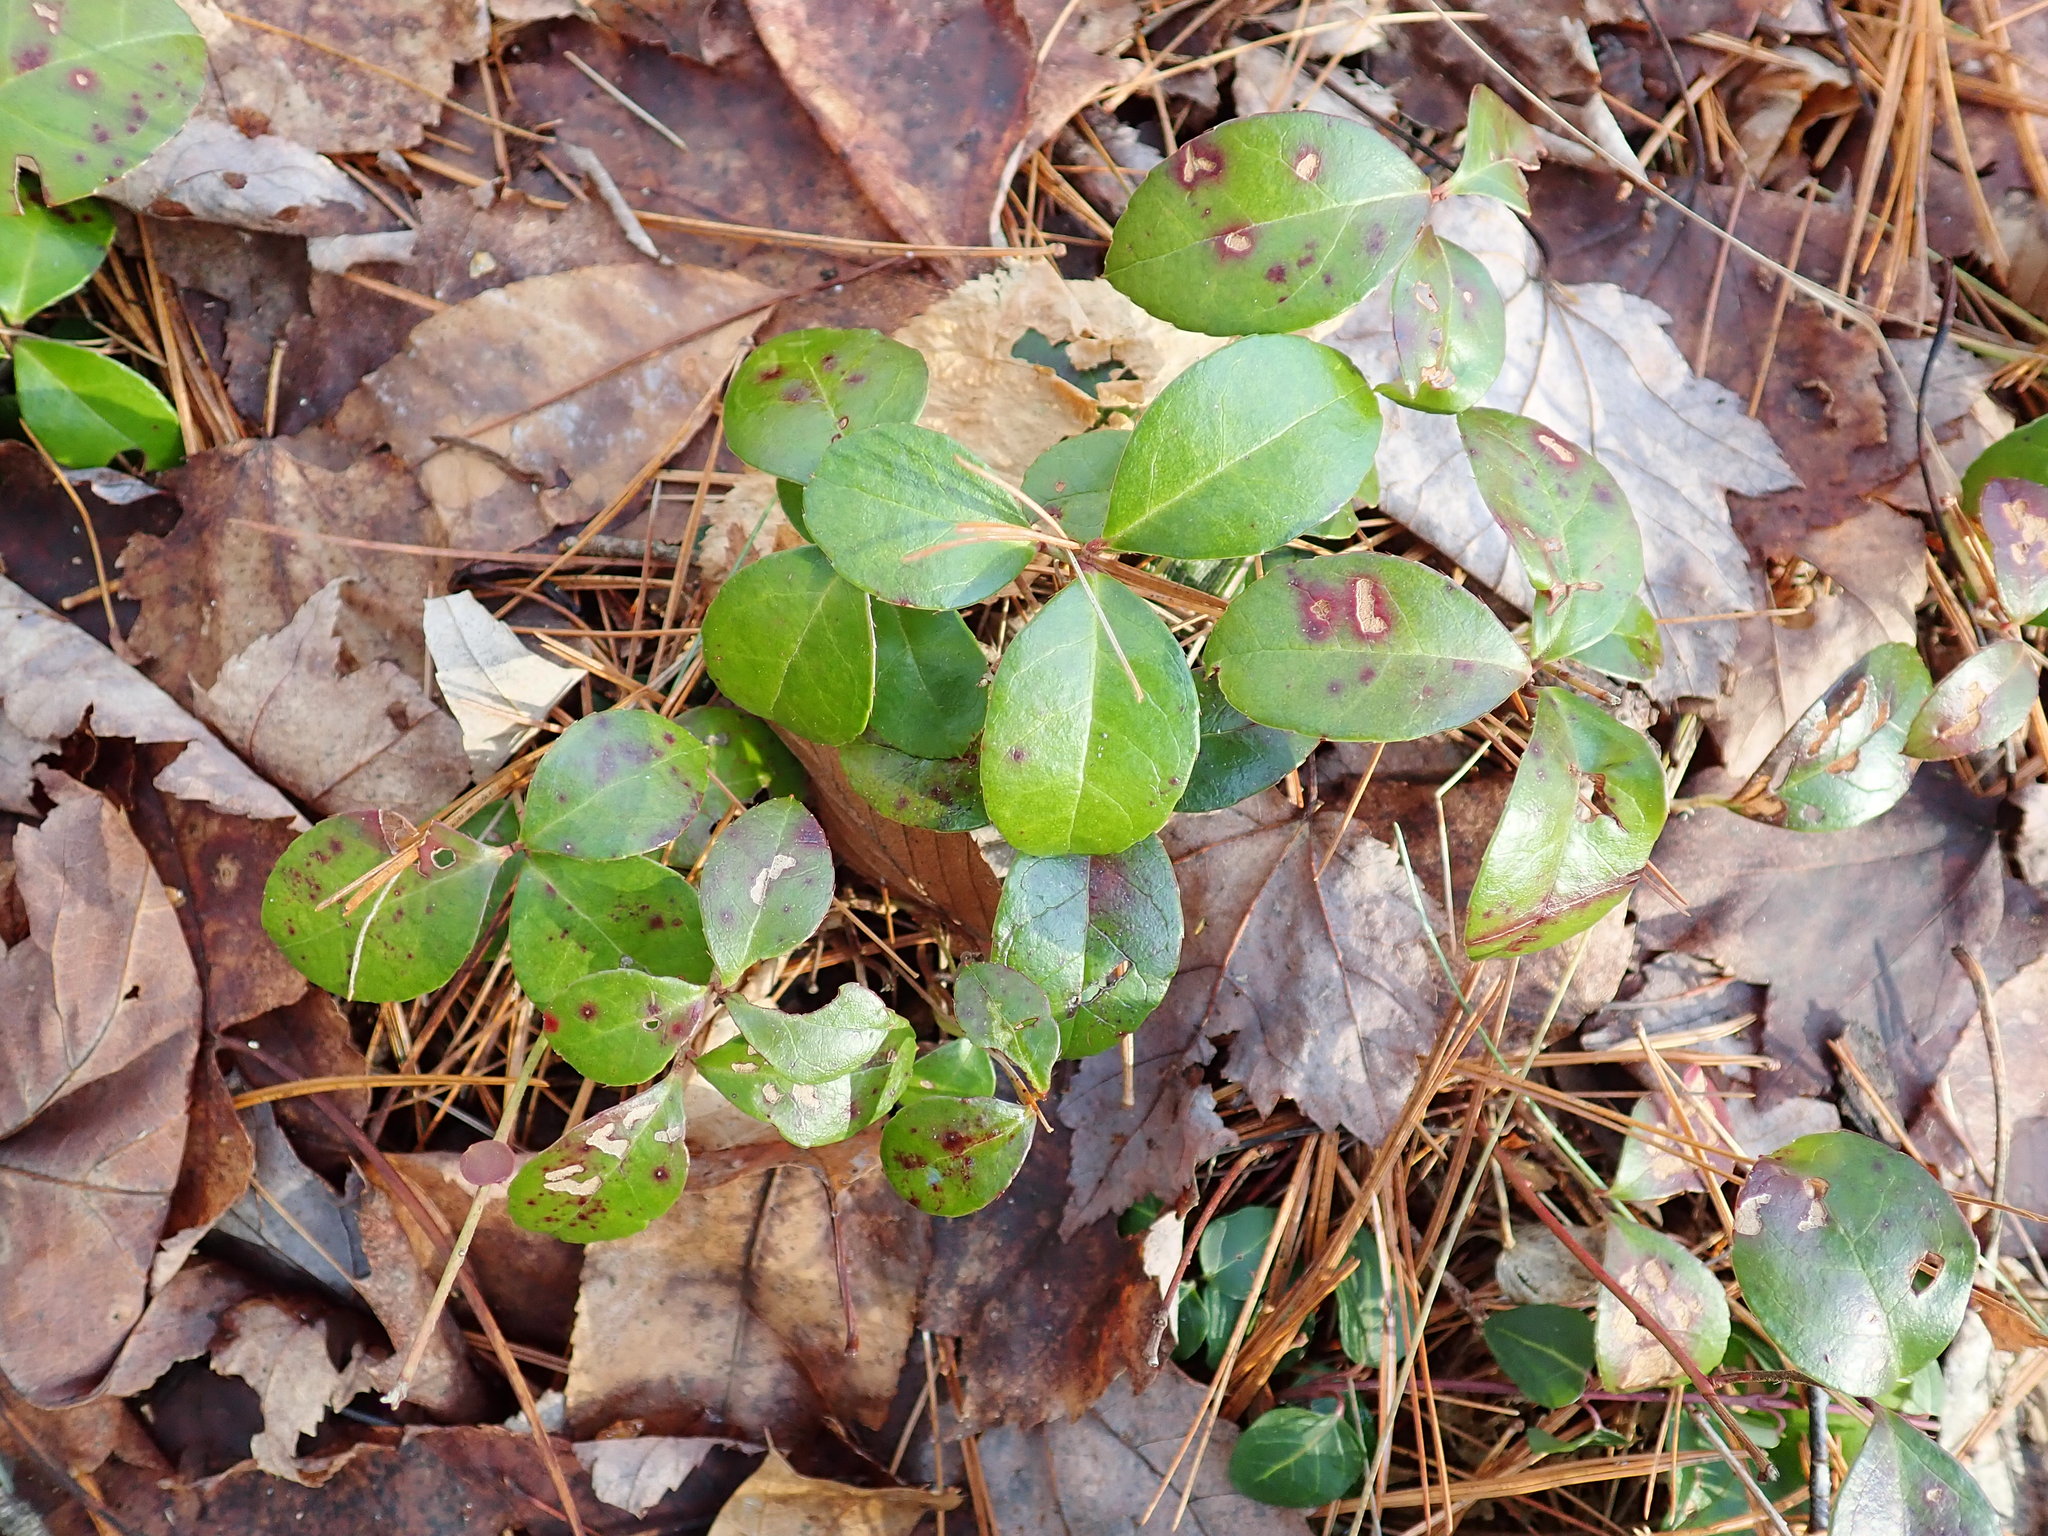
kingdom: Plantae
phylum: Tracheophyta
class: Magnoliopsida
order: Ericales
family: Ericaceae
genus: Gaultheria
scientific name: Gaultheria procumbens
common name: Checkerberry
